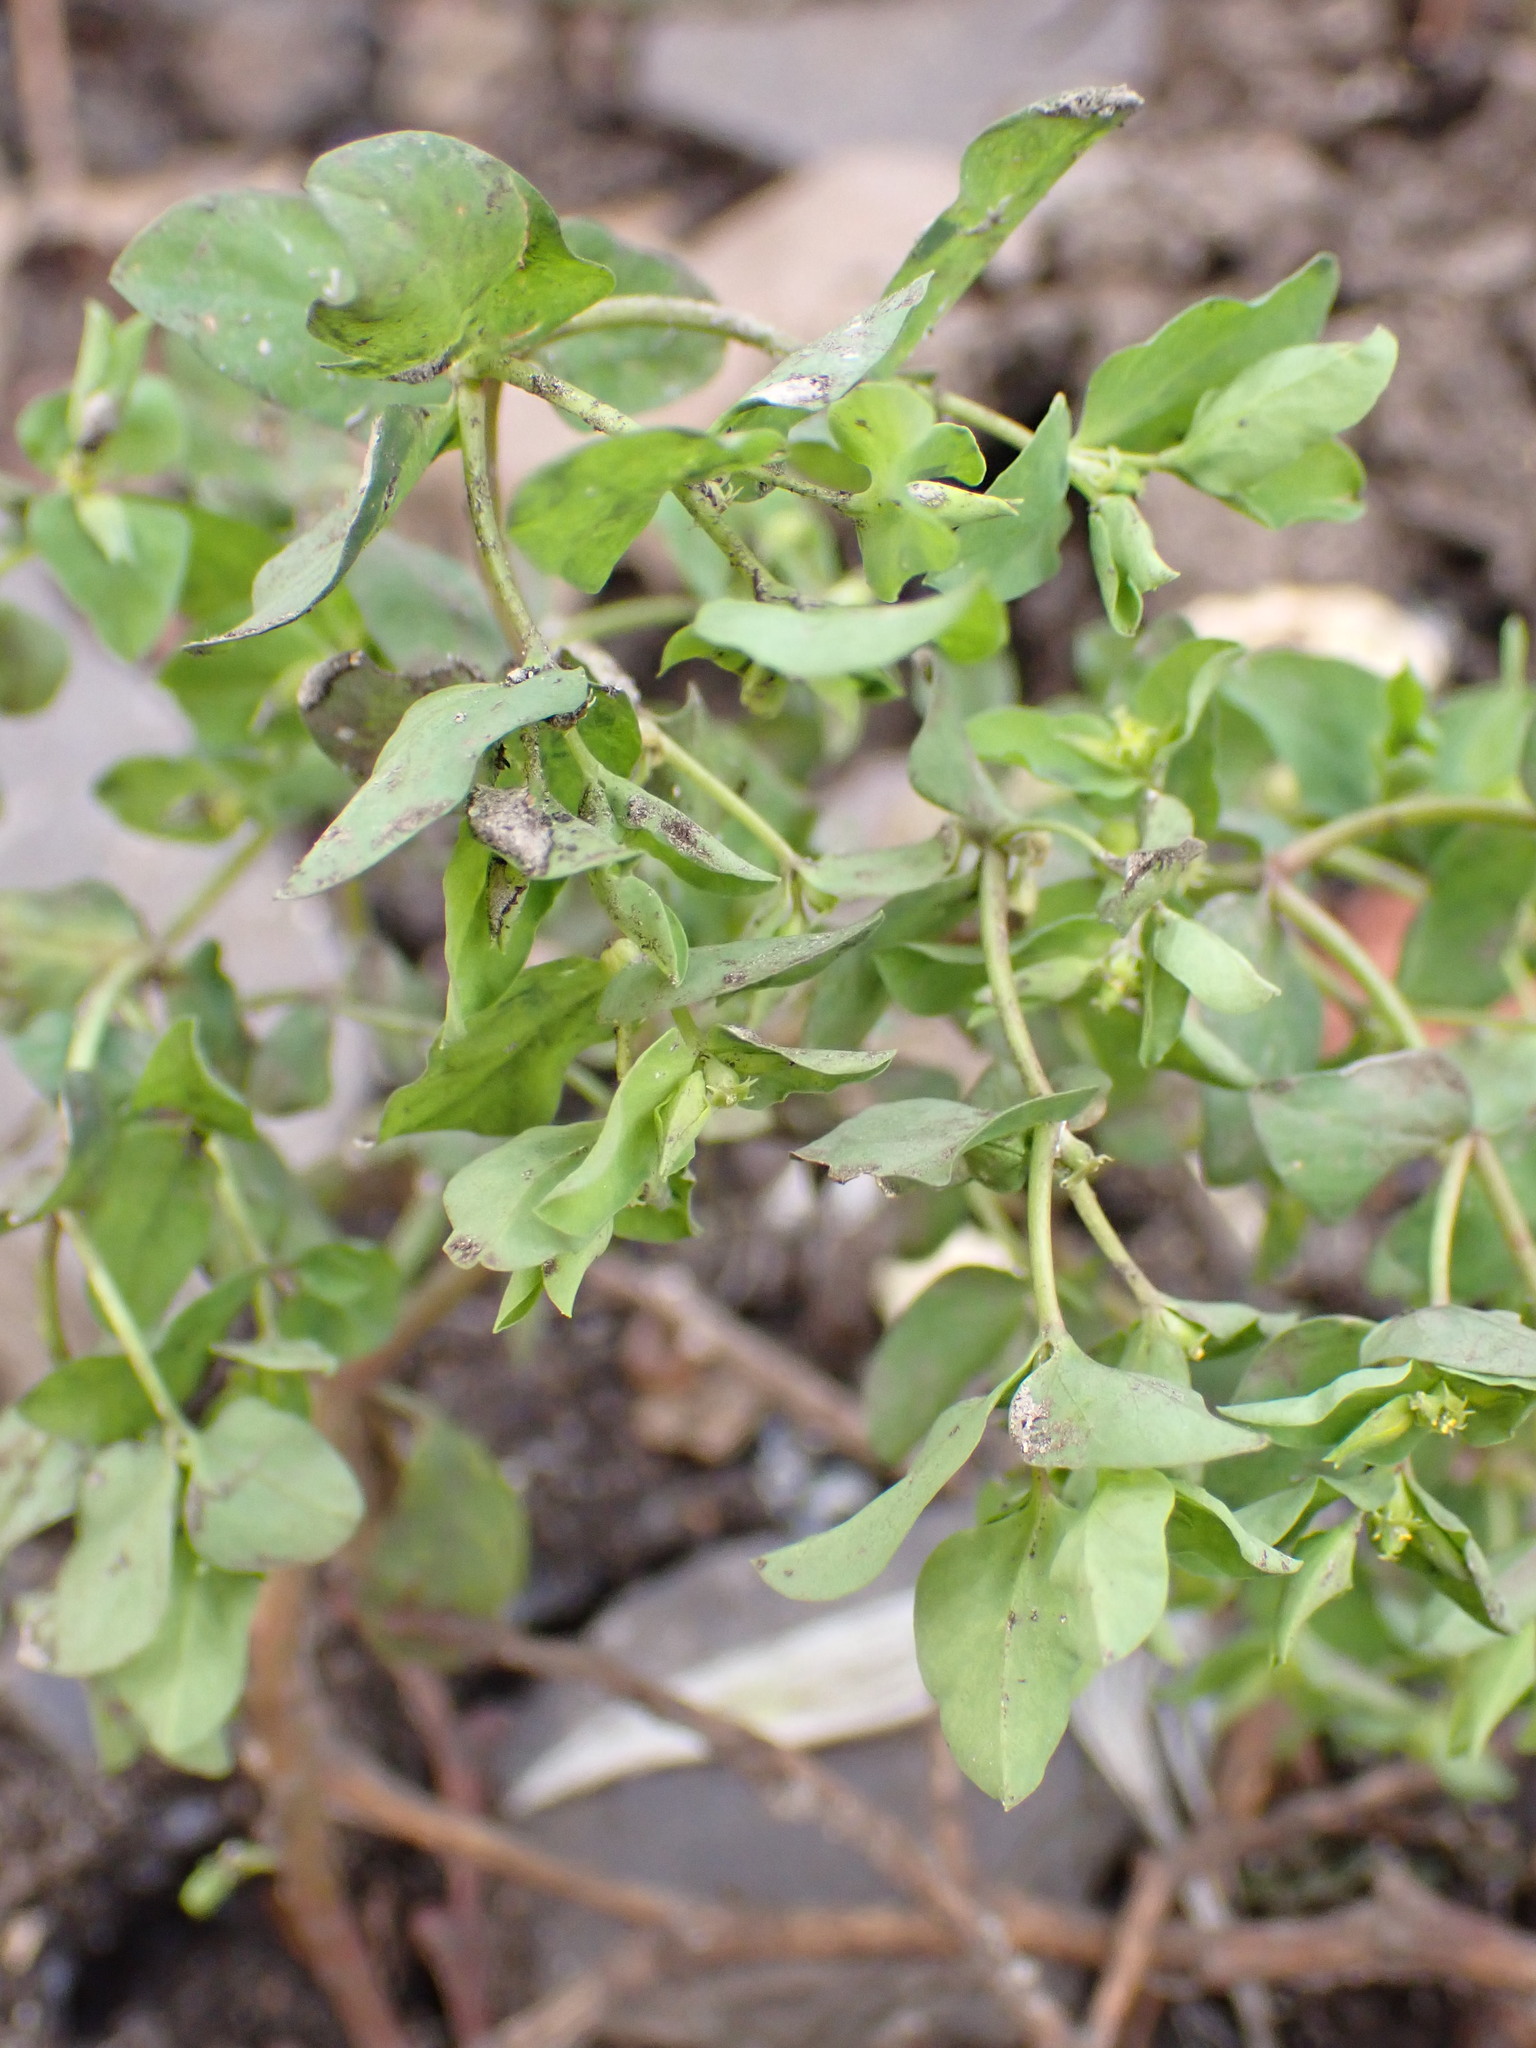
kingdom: Plantae
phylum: Tracheophyta
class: Magnoliopsida
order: Malpighiales
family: Euphorbiaceae
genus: Euphorbia
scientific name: Euphorbia peplus
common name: Petty spurge
